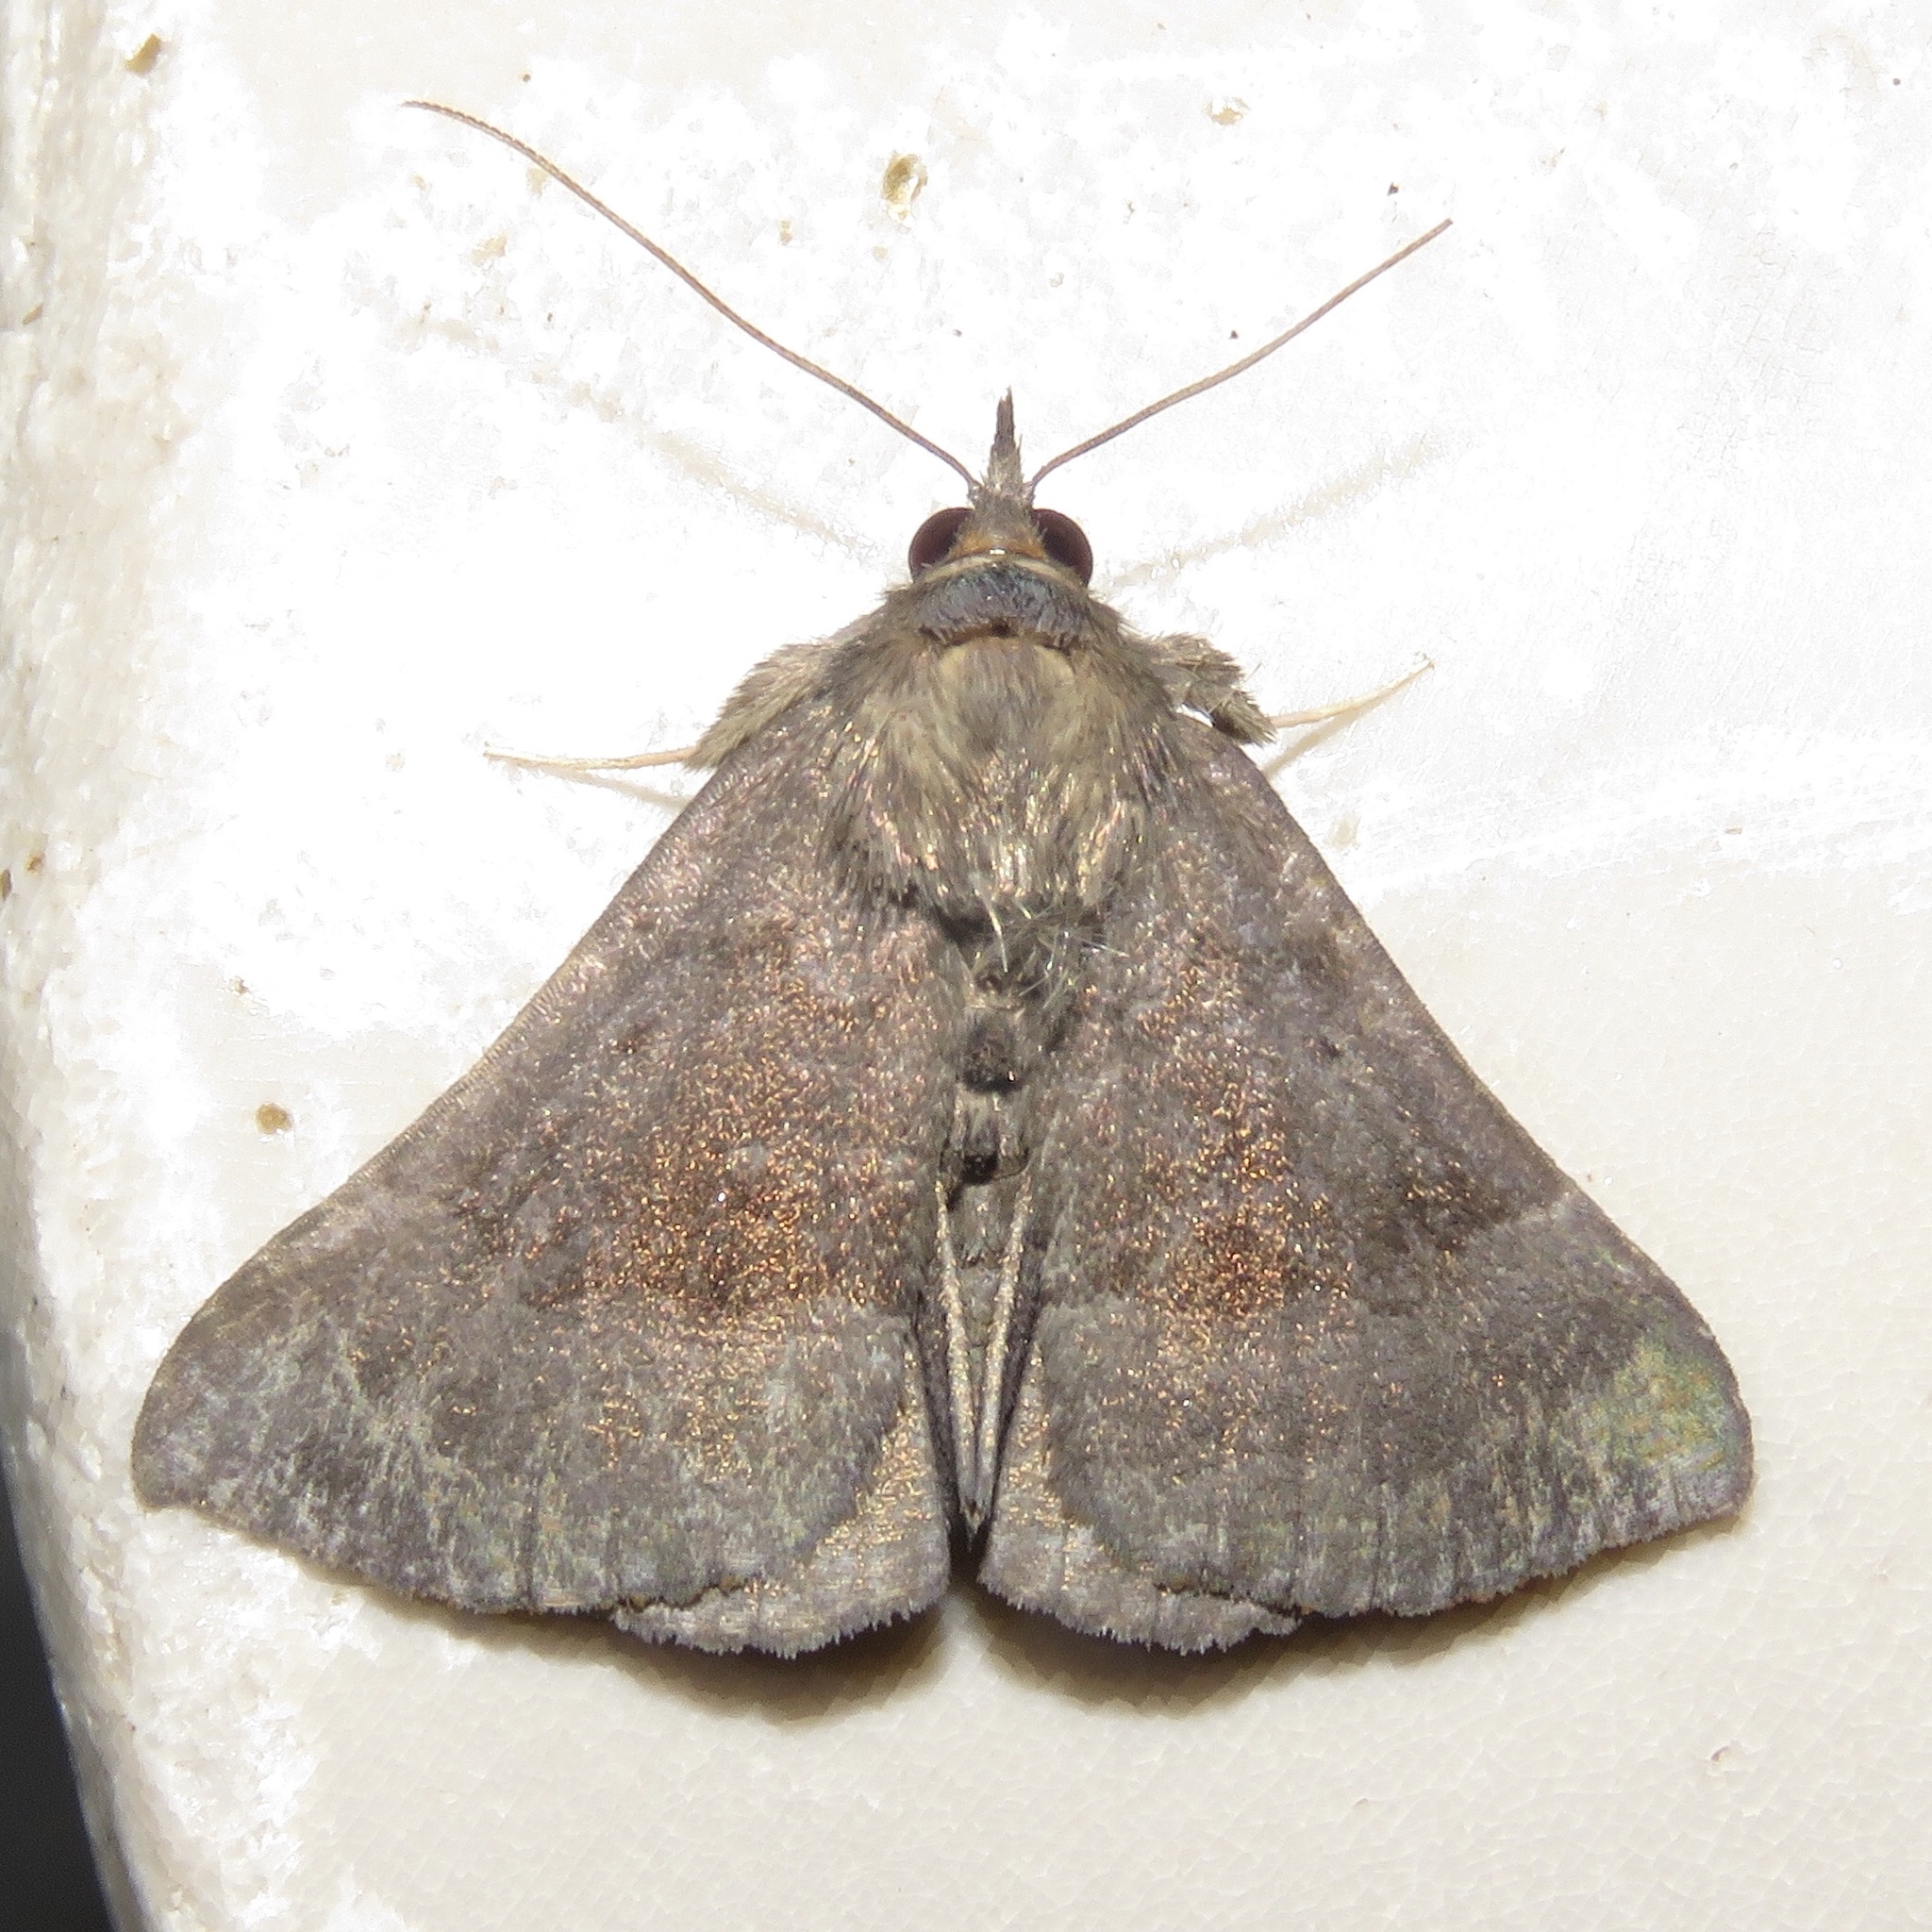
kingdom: Animalia
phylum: Arthropoda
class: Insecta
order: Lepidoptera
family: Erebidae
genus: Hypena
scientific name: Hypena madefactalis
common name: Gray-edged snout
